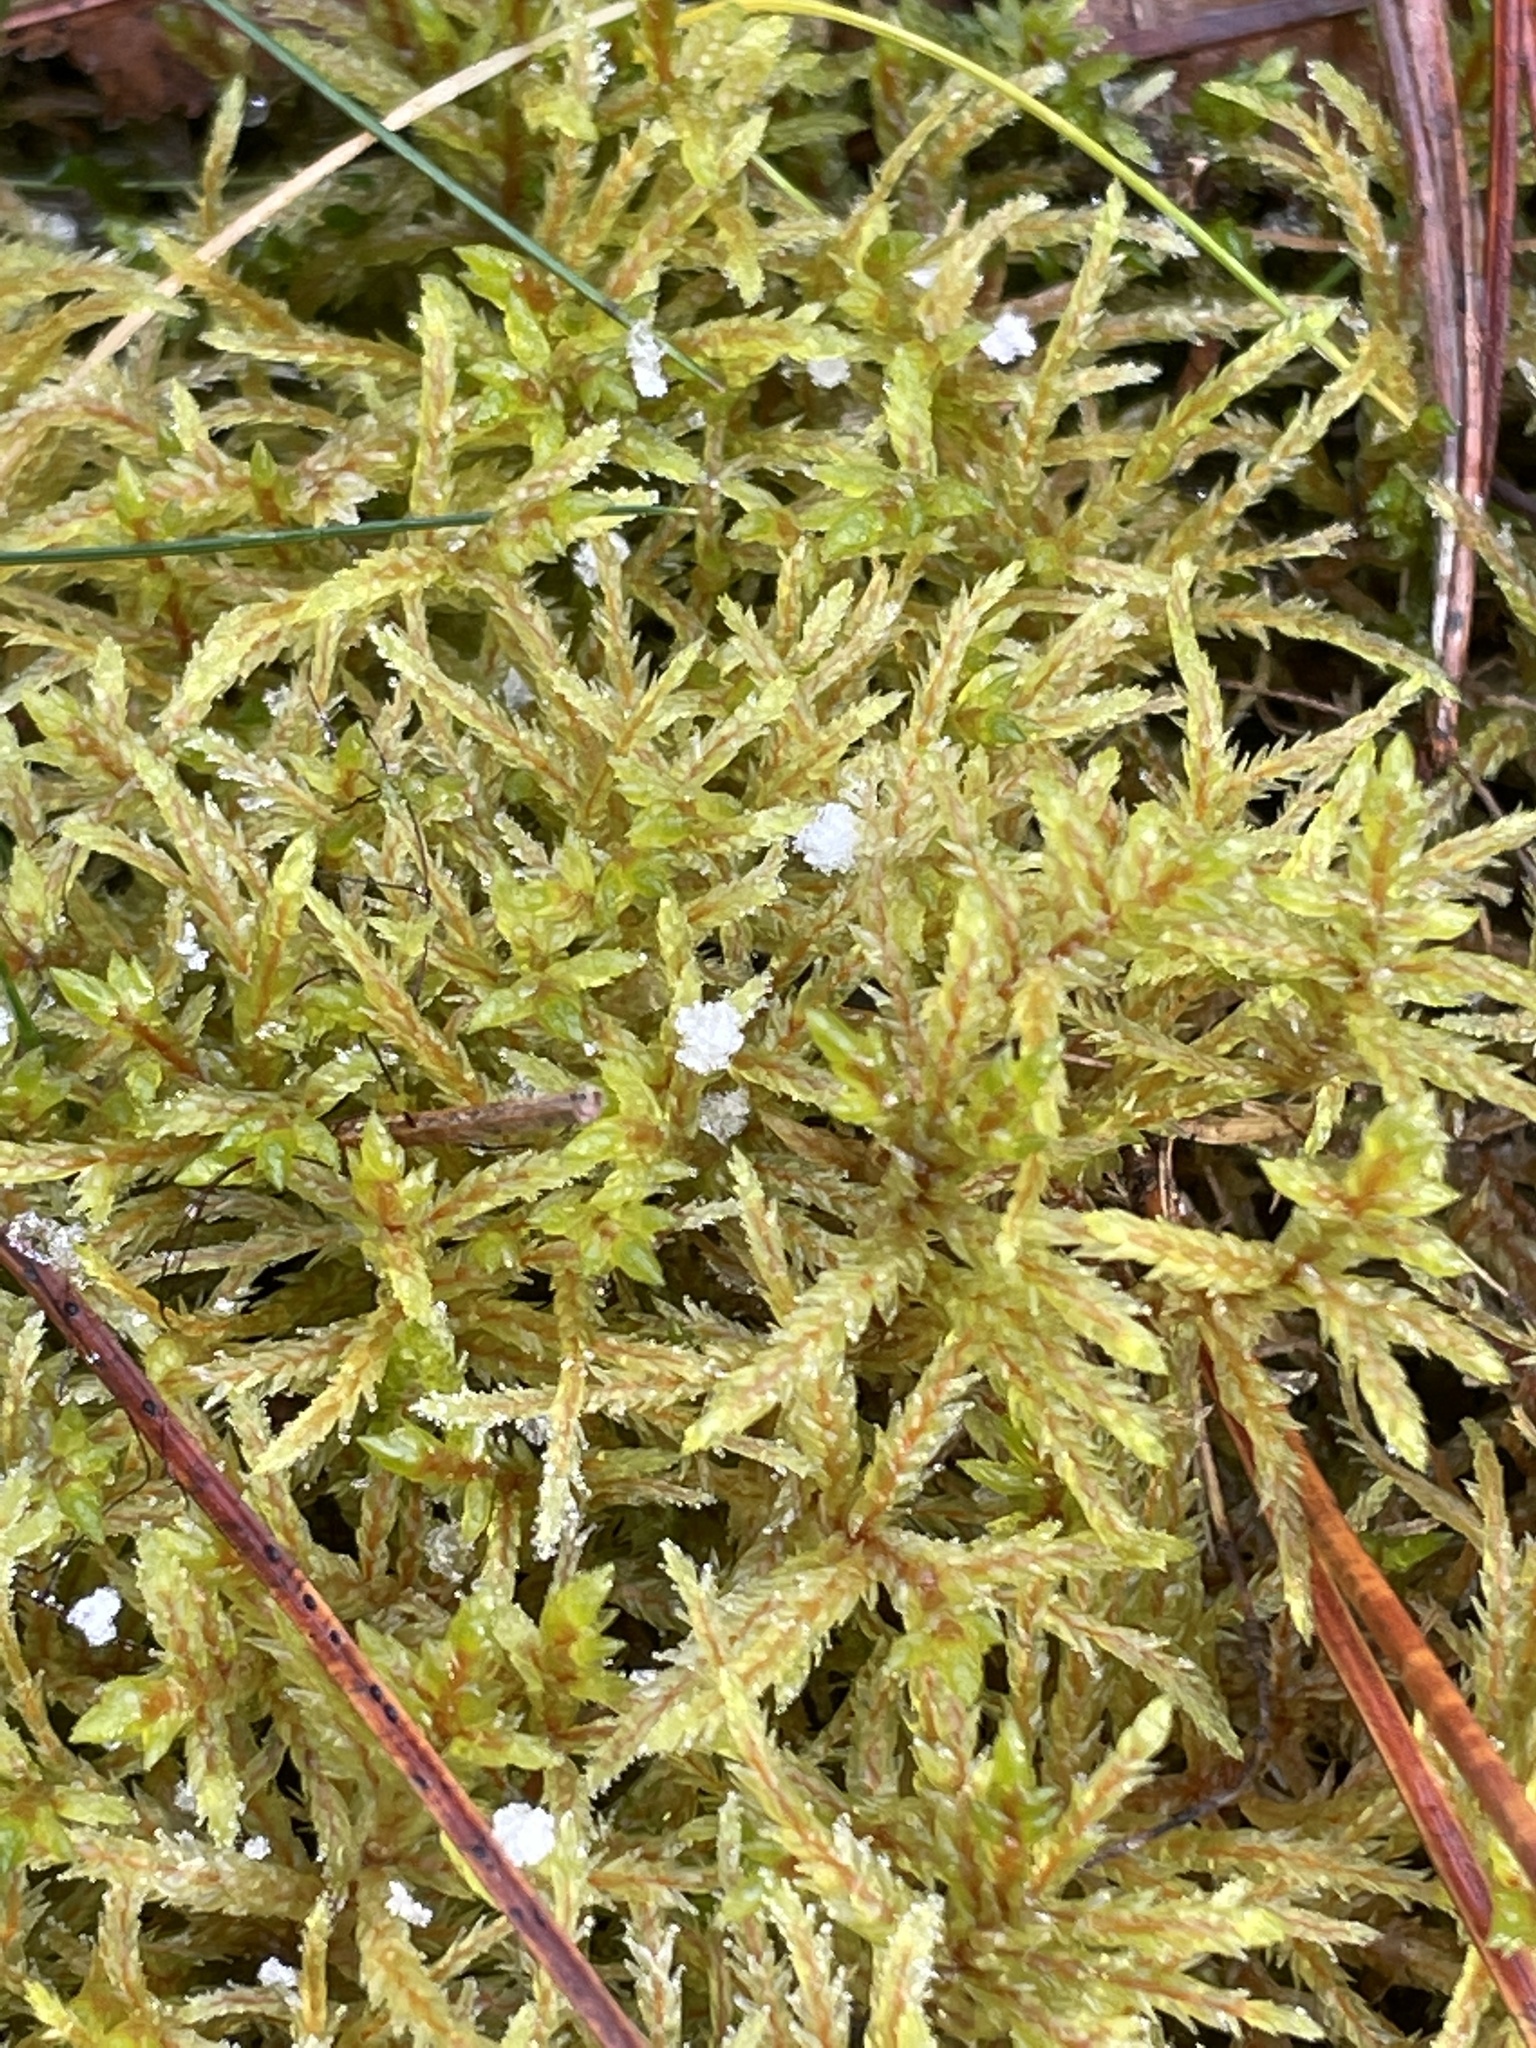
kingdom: Plantae
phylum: Bryophyta
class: Bryopsida
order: Hypnales
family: Hylocomiaceae
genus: Pleurozium
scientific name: Pleurozium schreberi
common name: Red-stemmed feather moss
